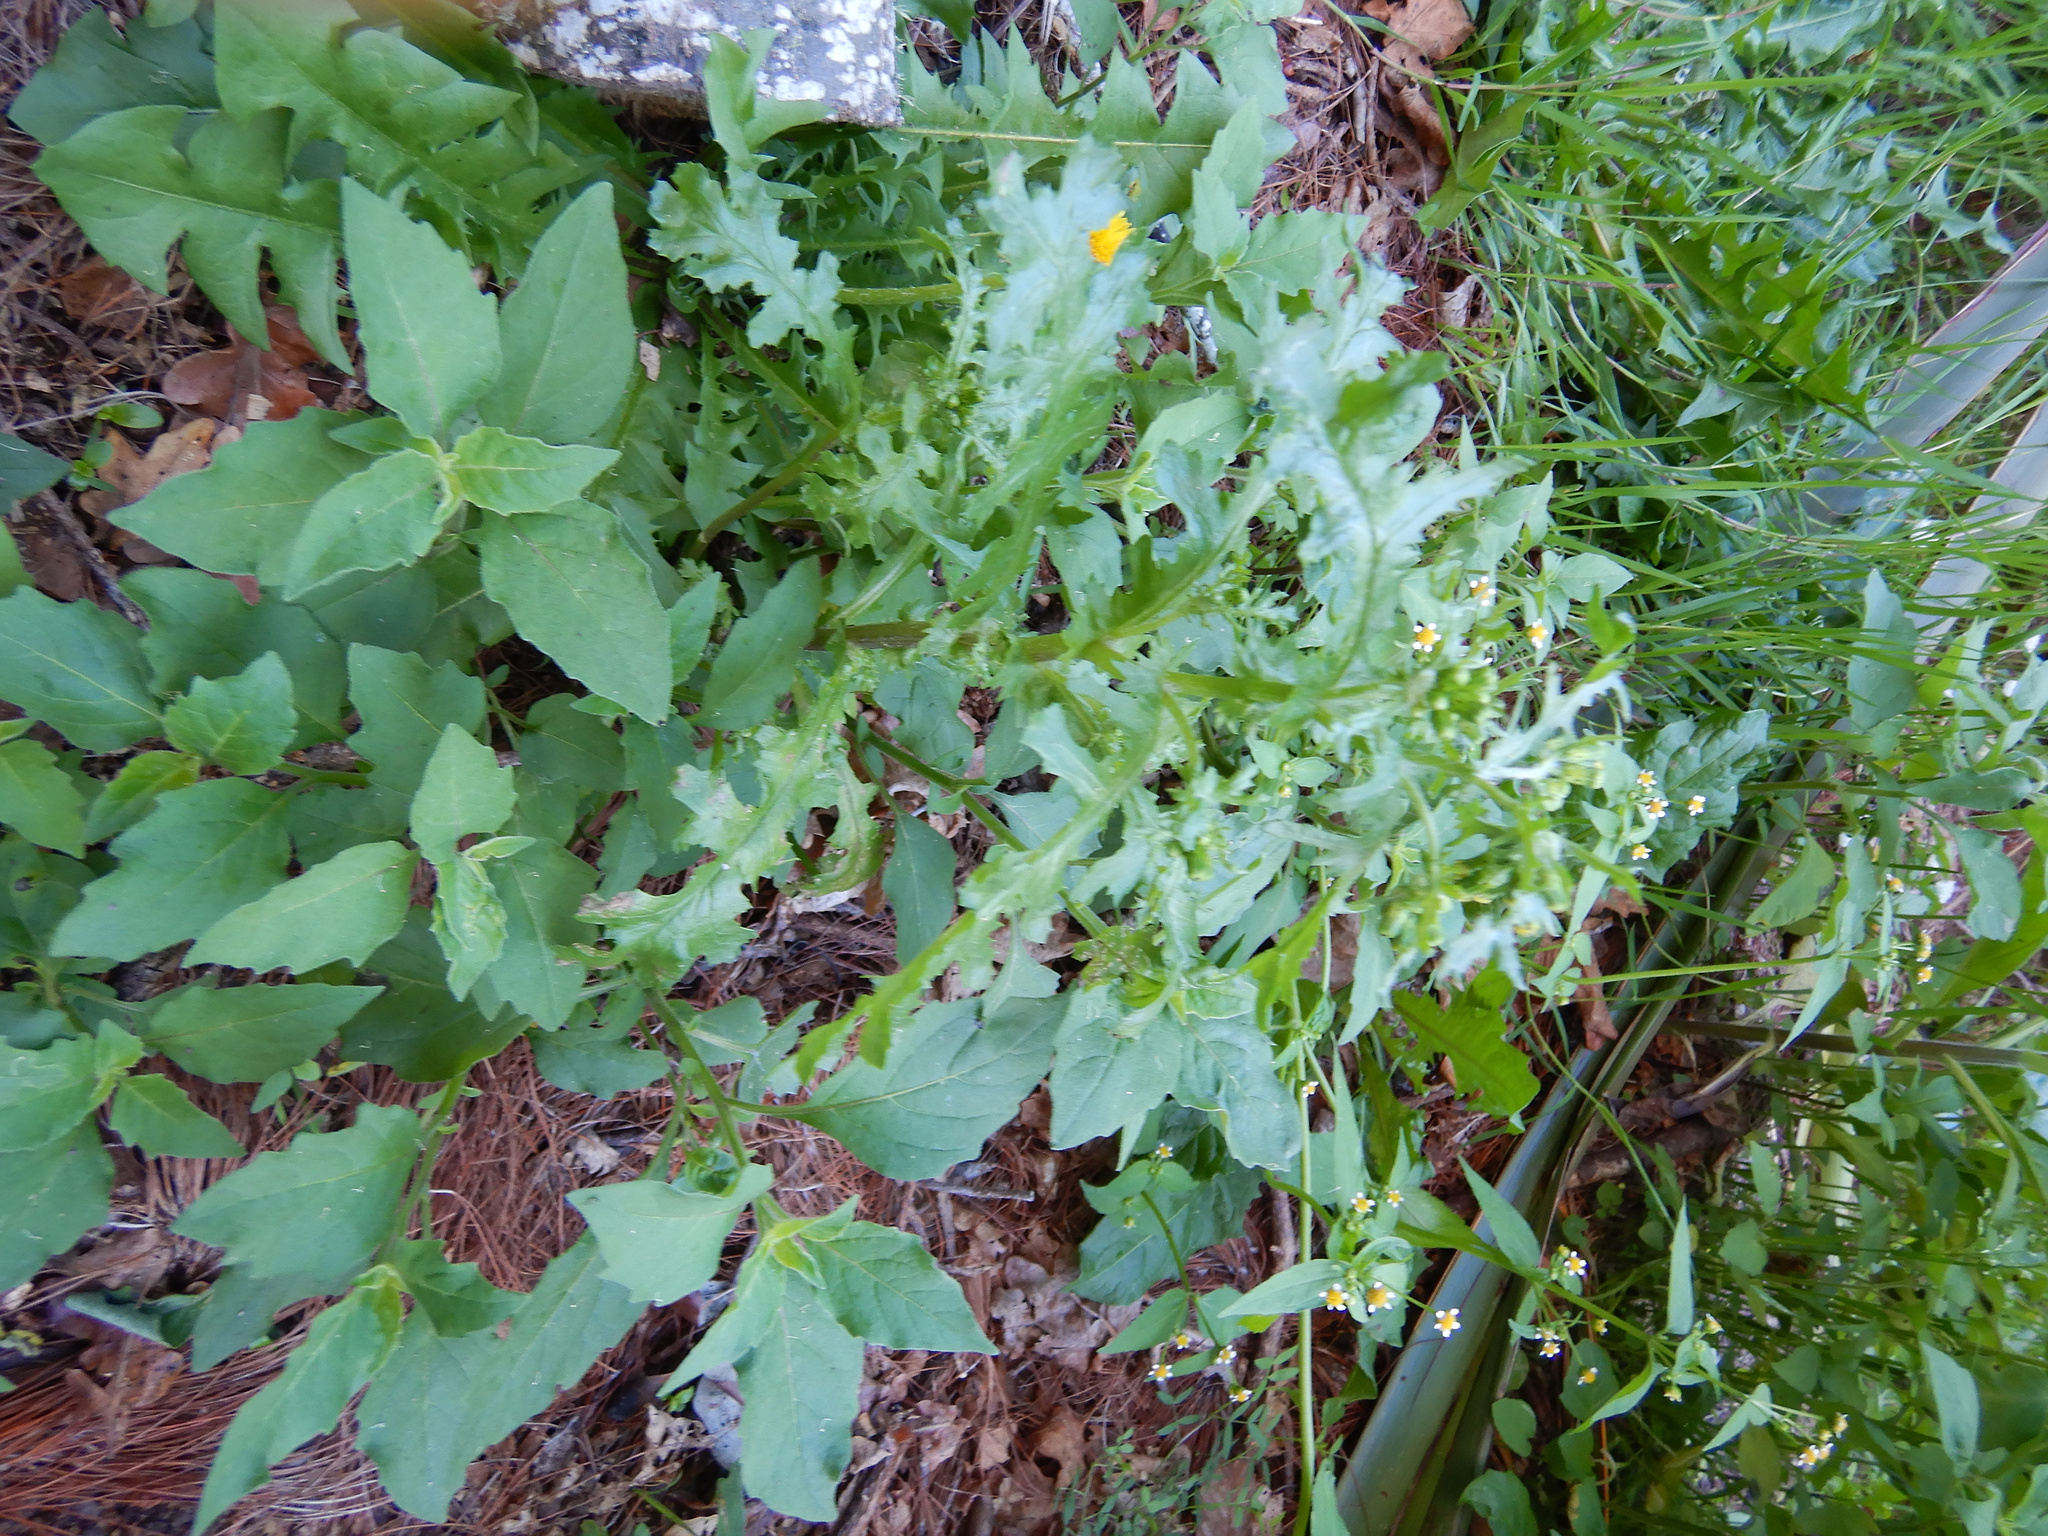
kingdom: Plantae
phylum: Tracheophyta
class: Magnoliopsida
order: Asterales
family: Asteraceae
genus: Senecio
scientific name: Senecio vulgaris
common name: Old-man-in-the-spring
